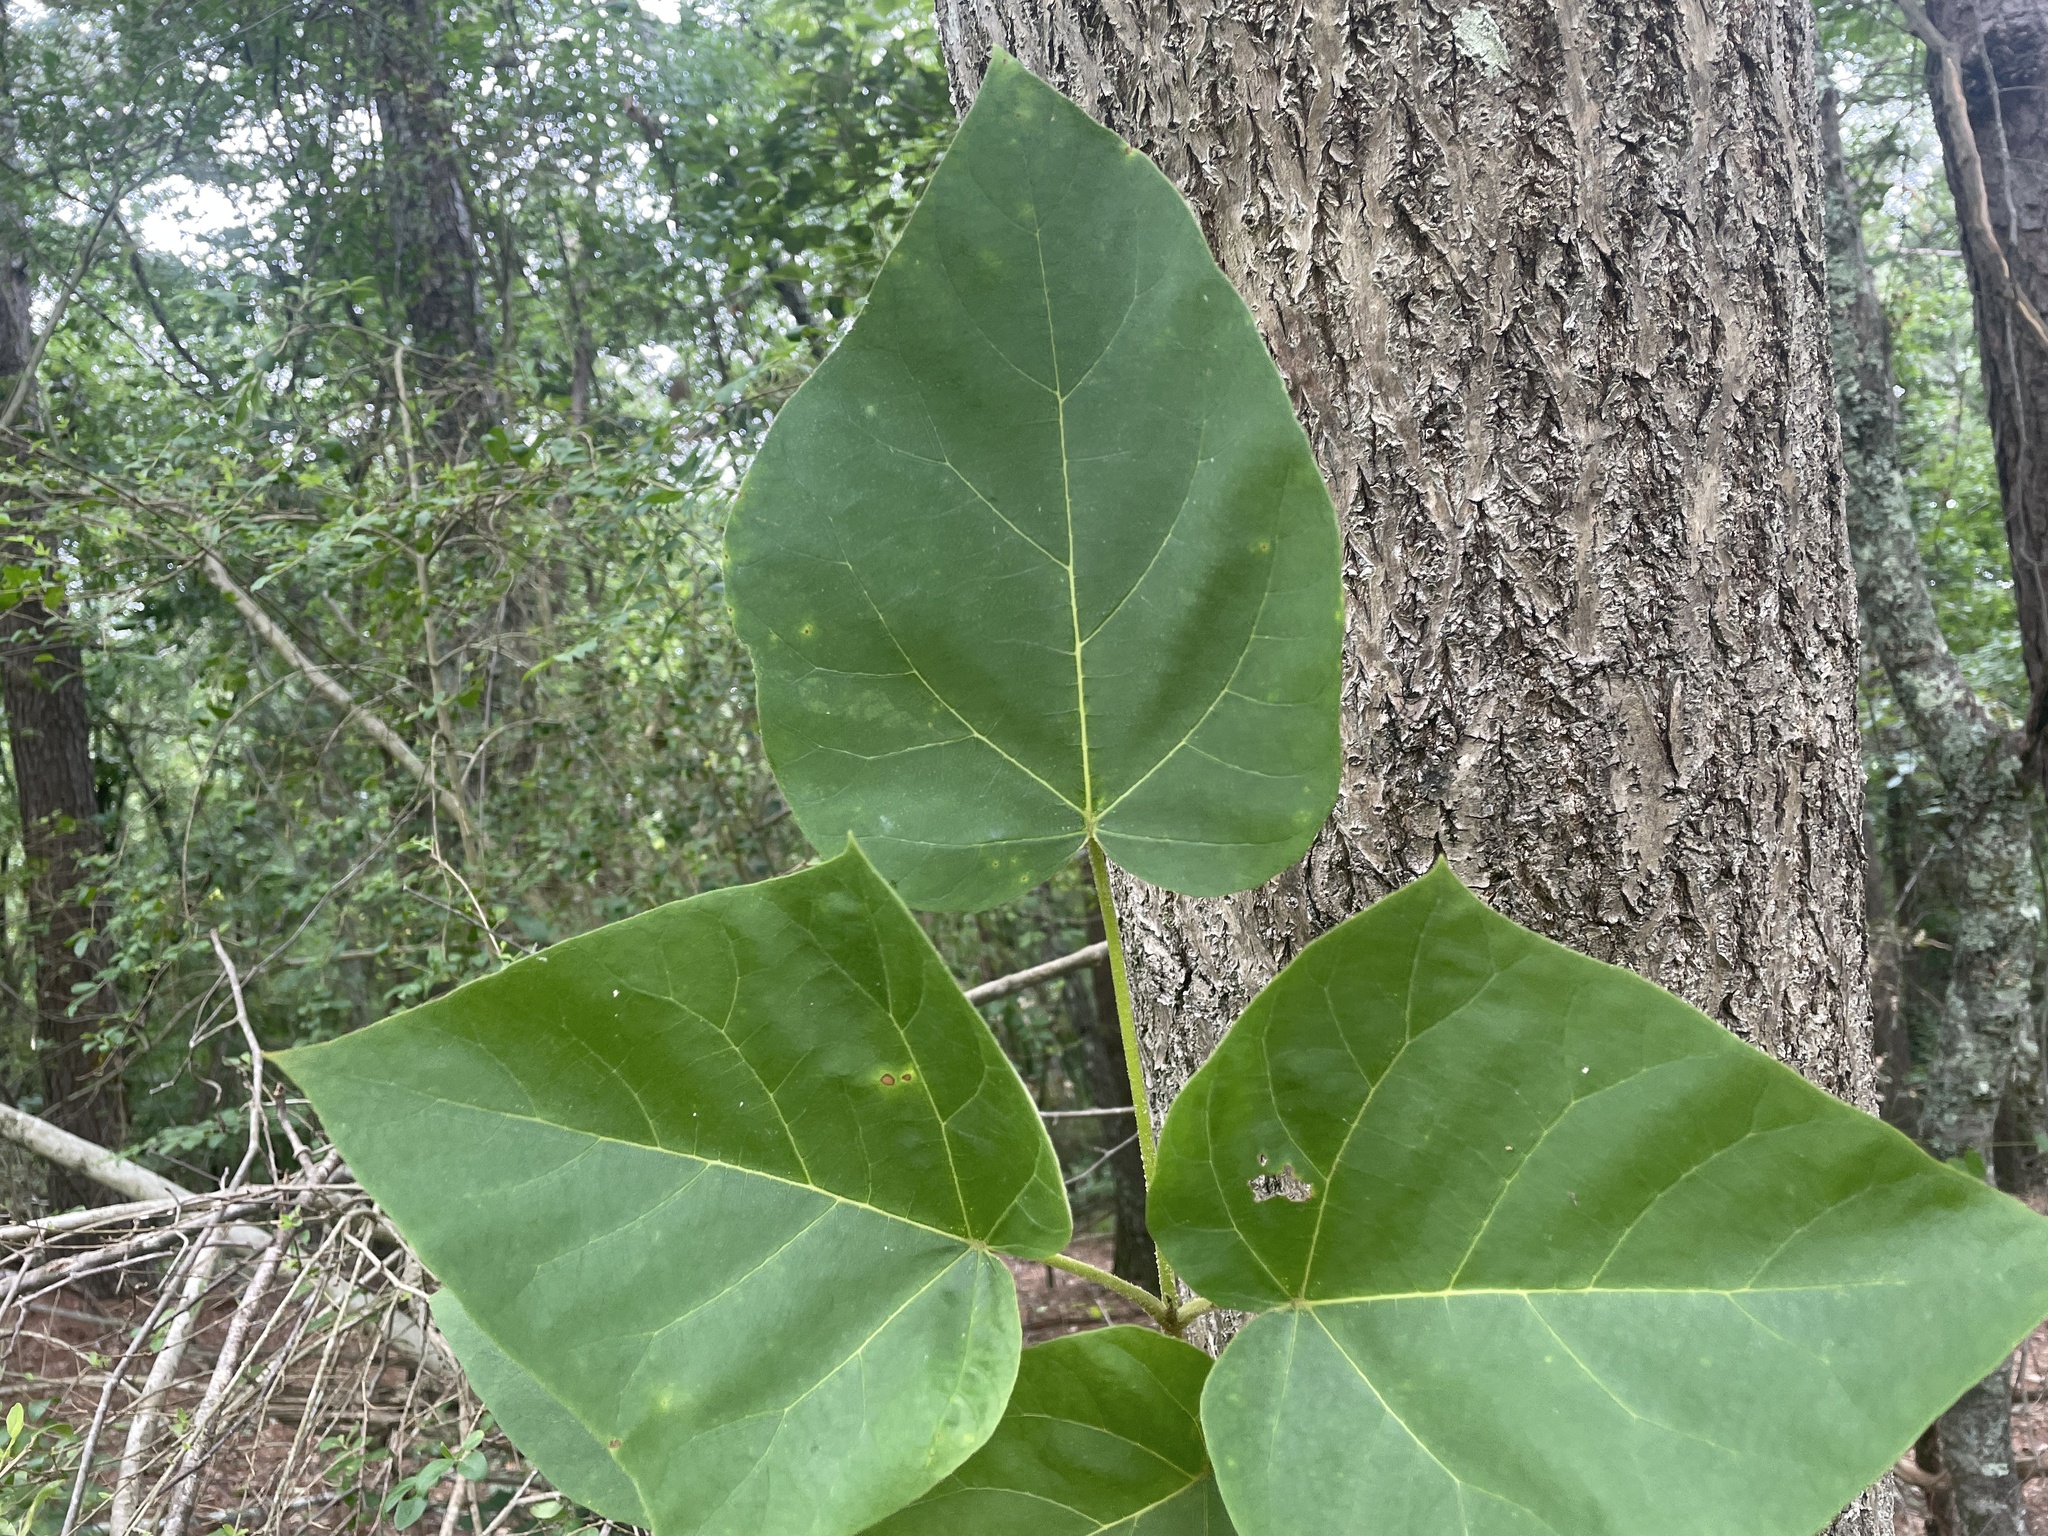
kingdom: Plantae
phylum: Tracheophyta
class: Magnoliopsida
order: Lamiales
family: Paulowniaceae
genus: Paulownia
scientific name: Paulownia tomentosa
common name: Foxglove-tree
